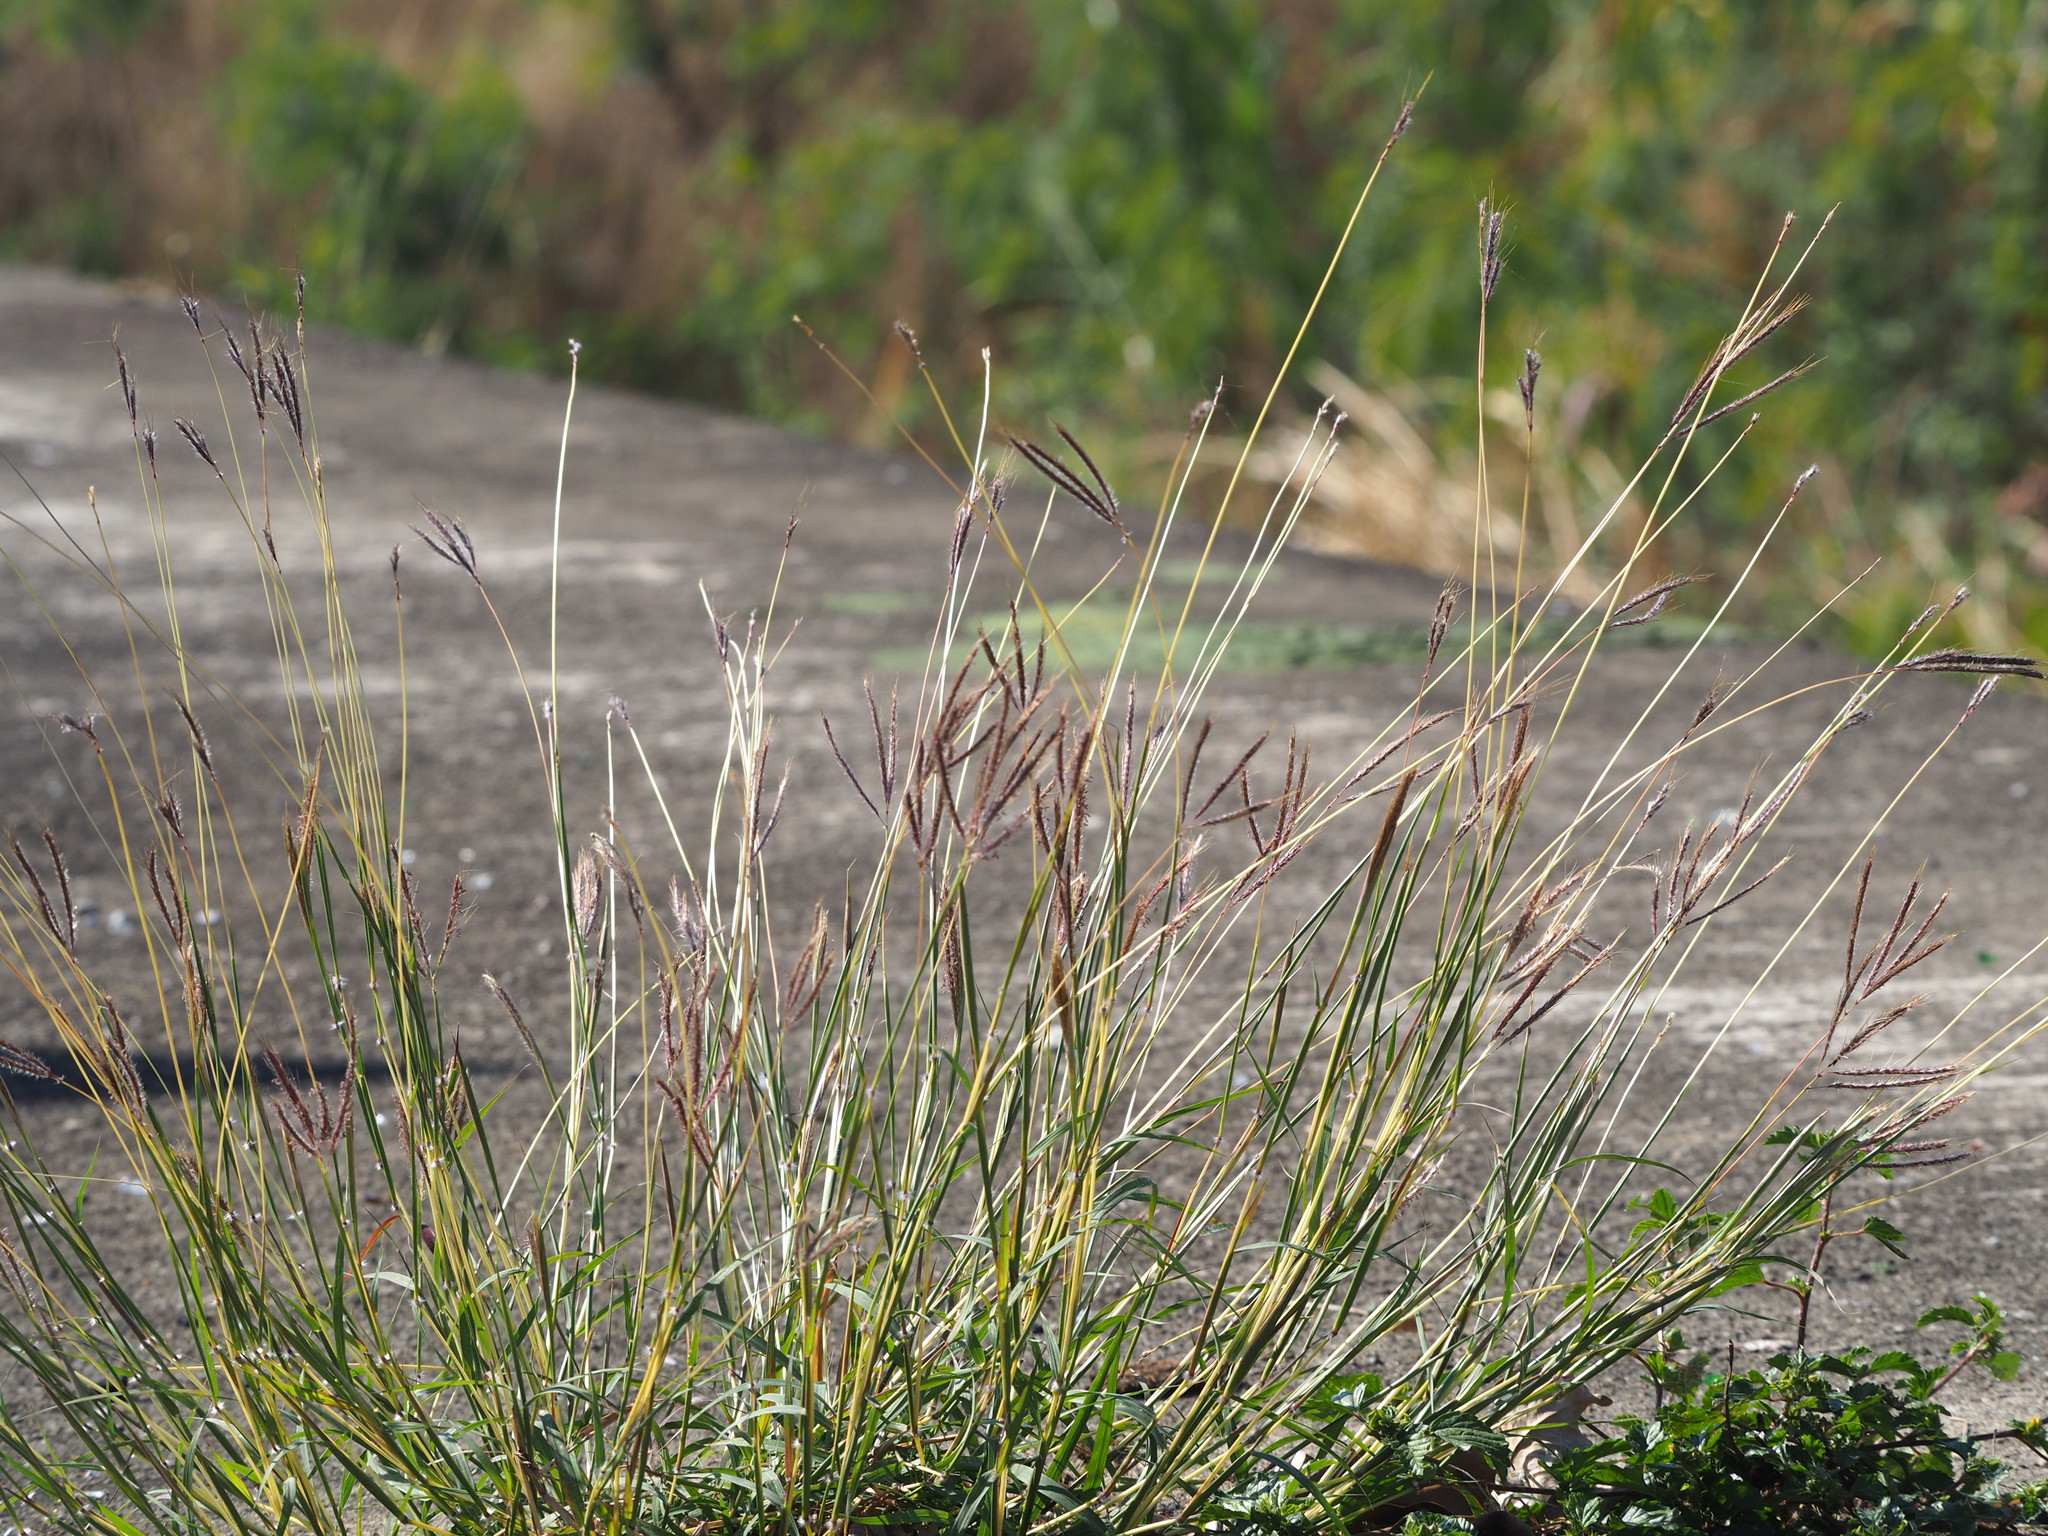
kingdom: Plantae
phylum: Tracheophyta
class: Liliopsida
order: Poales
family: Poaceae
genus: Dichanthium
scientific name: Dichanthium annulatum
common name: Kleberg's bluestem
